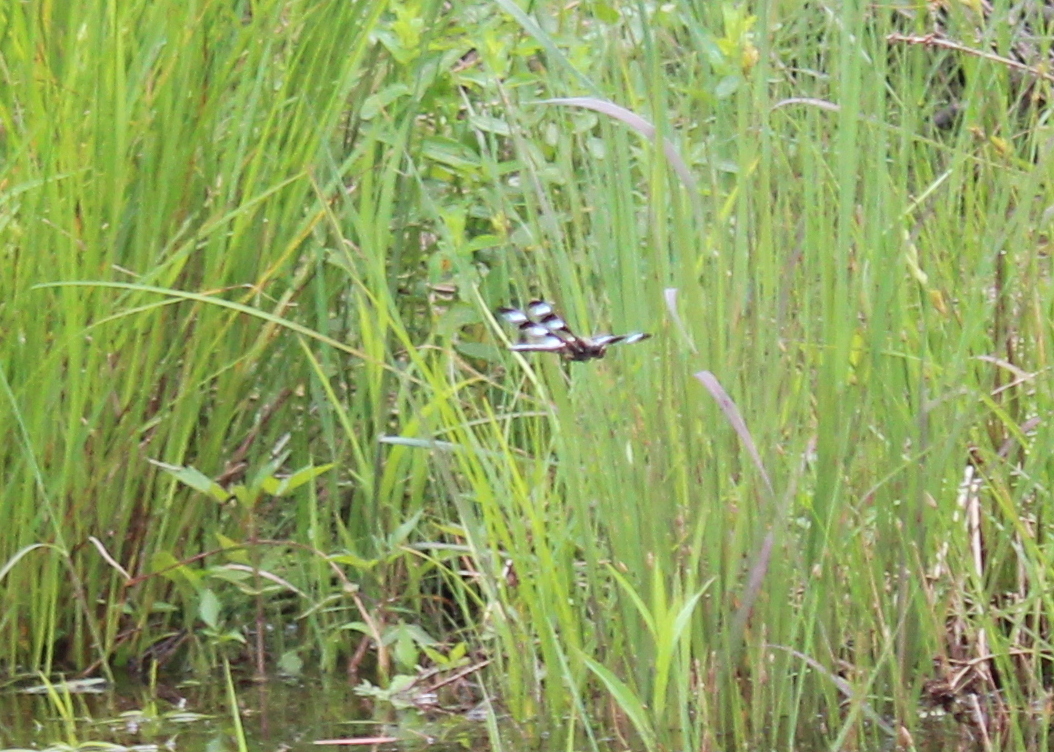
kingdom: Animalia
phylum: Arthropoda
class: Insecta
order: Odonata
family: Libellulidae
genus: Libellula
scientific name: Libellula pulchella
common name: Twelve-spotted skimmer
